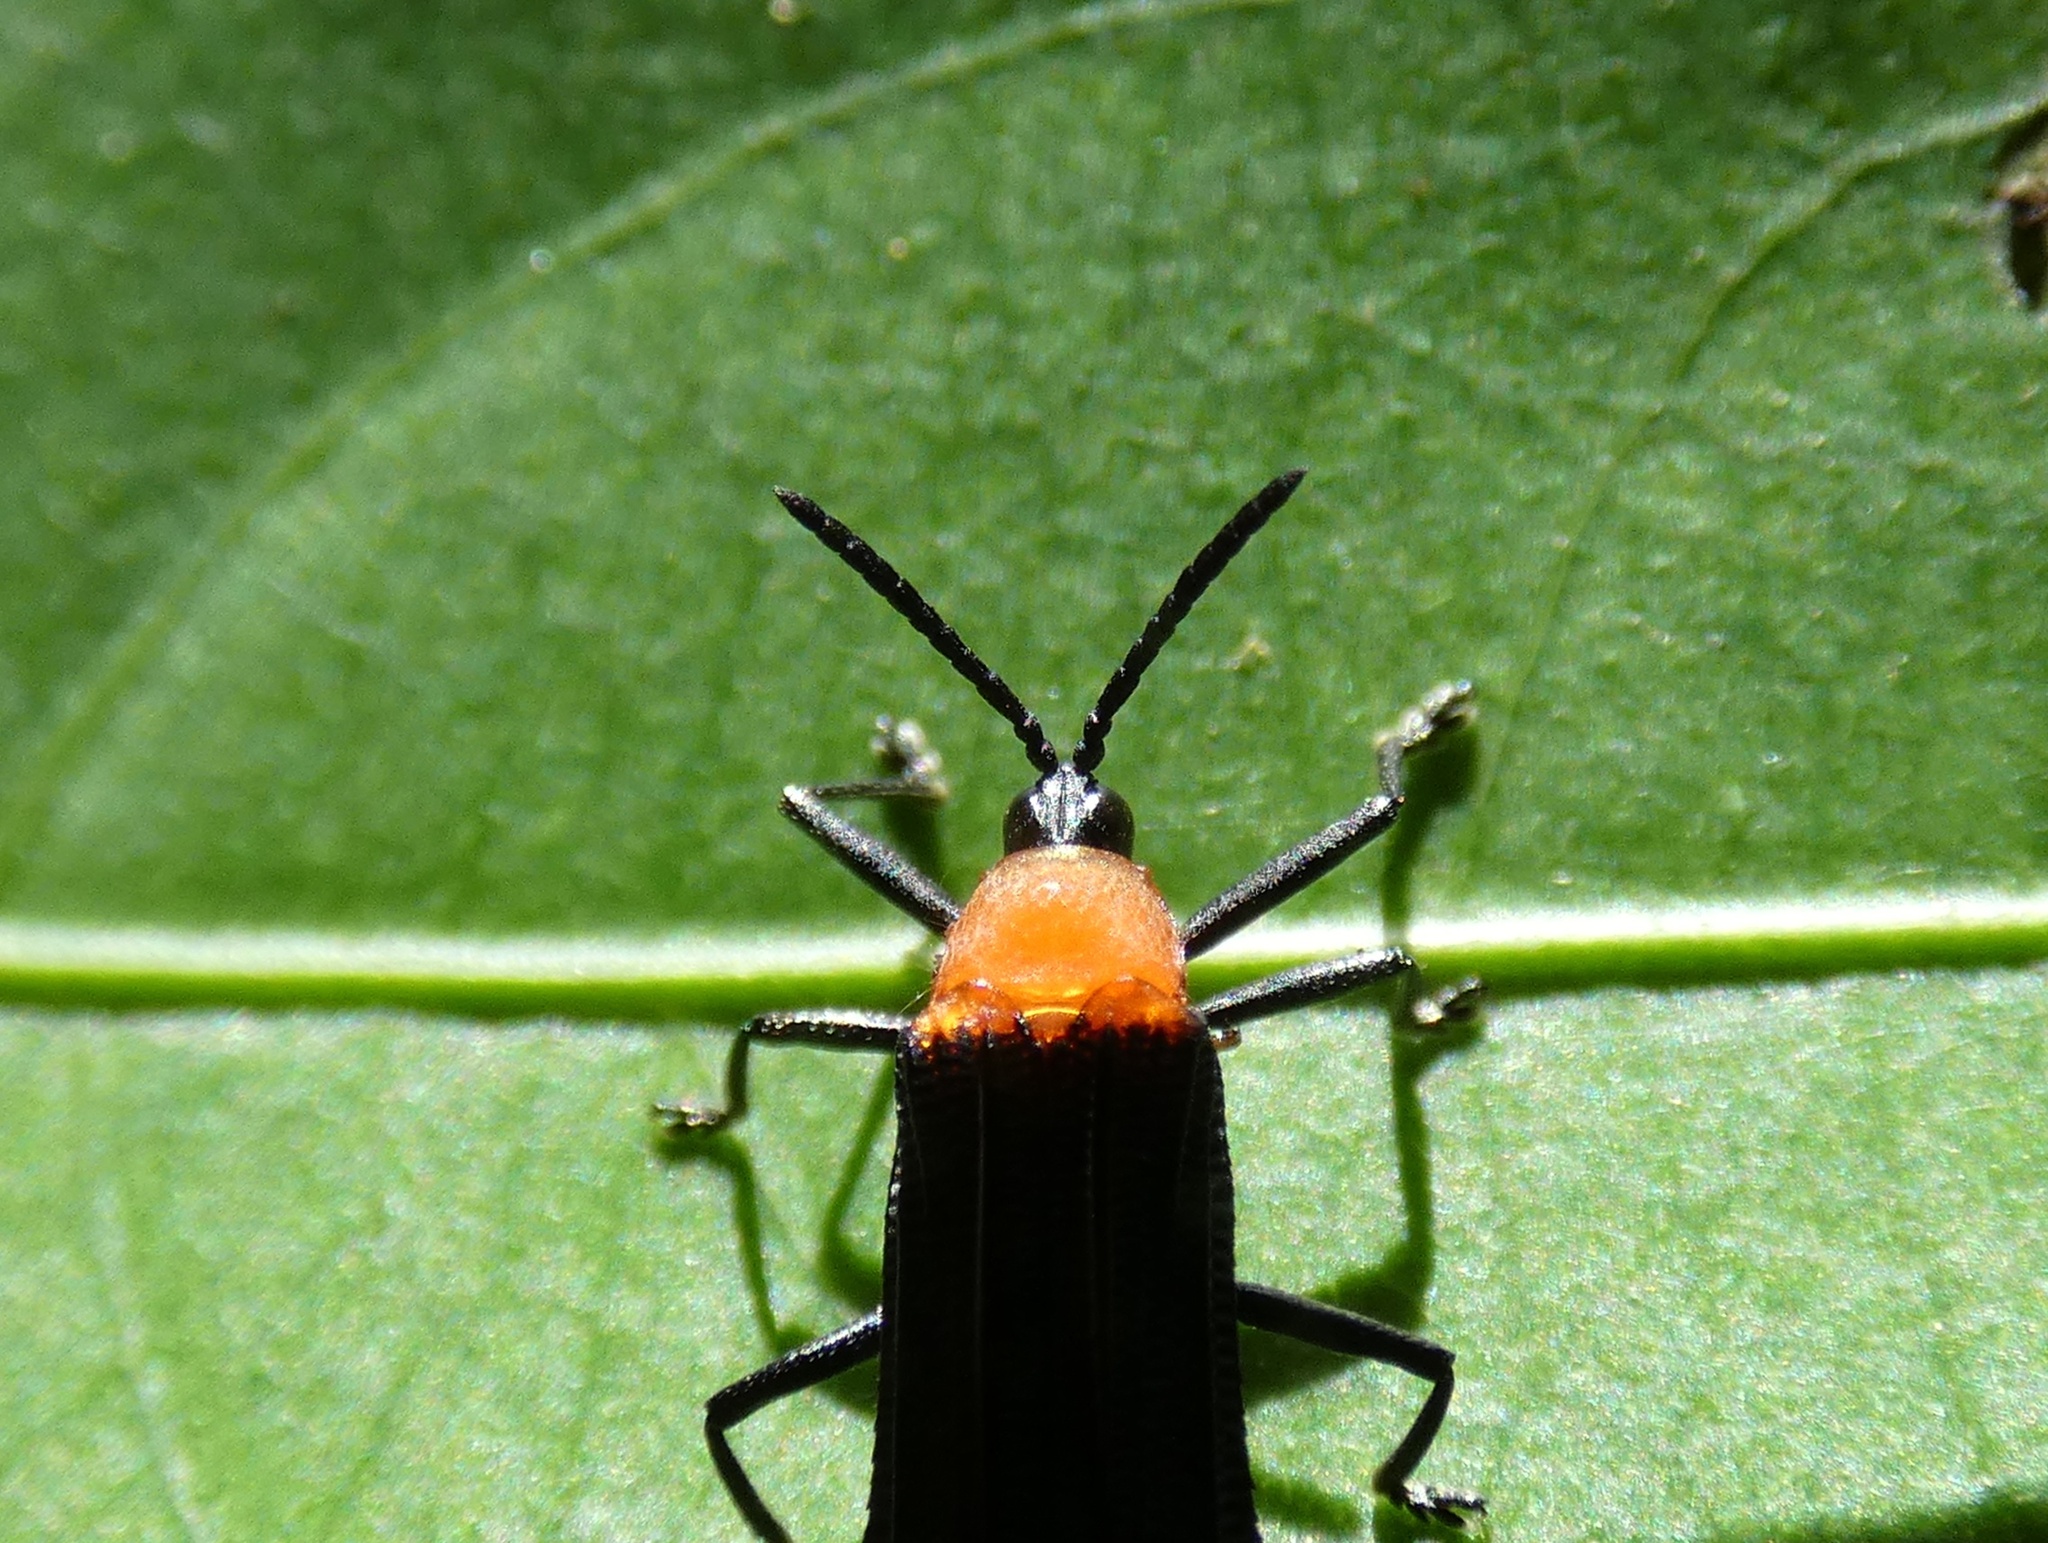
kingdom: Animalia
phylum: Arthropoda
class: Insecta
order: Coleoptera
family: Chrysomelidae
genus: Xenochalepus
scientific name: Xenochalepus erythroderus
